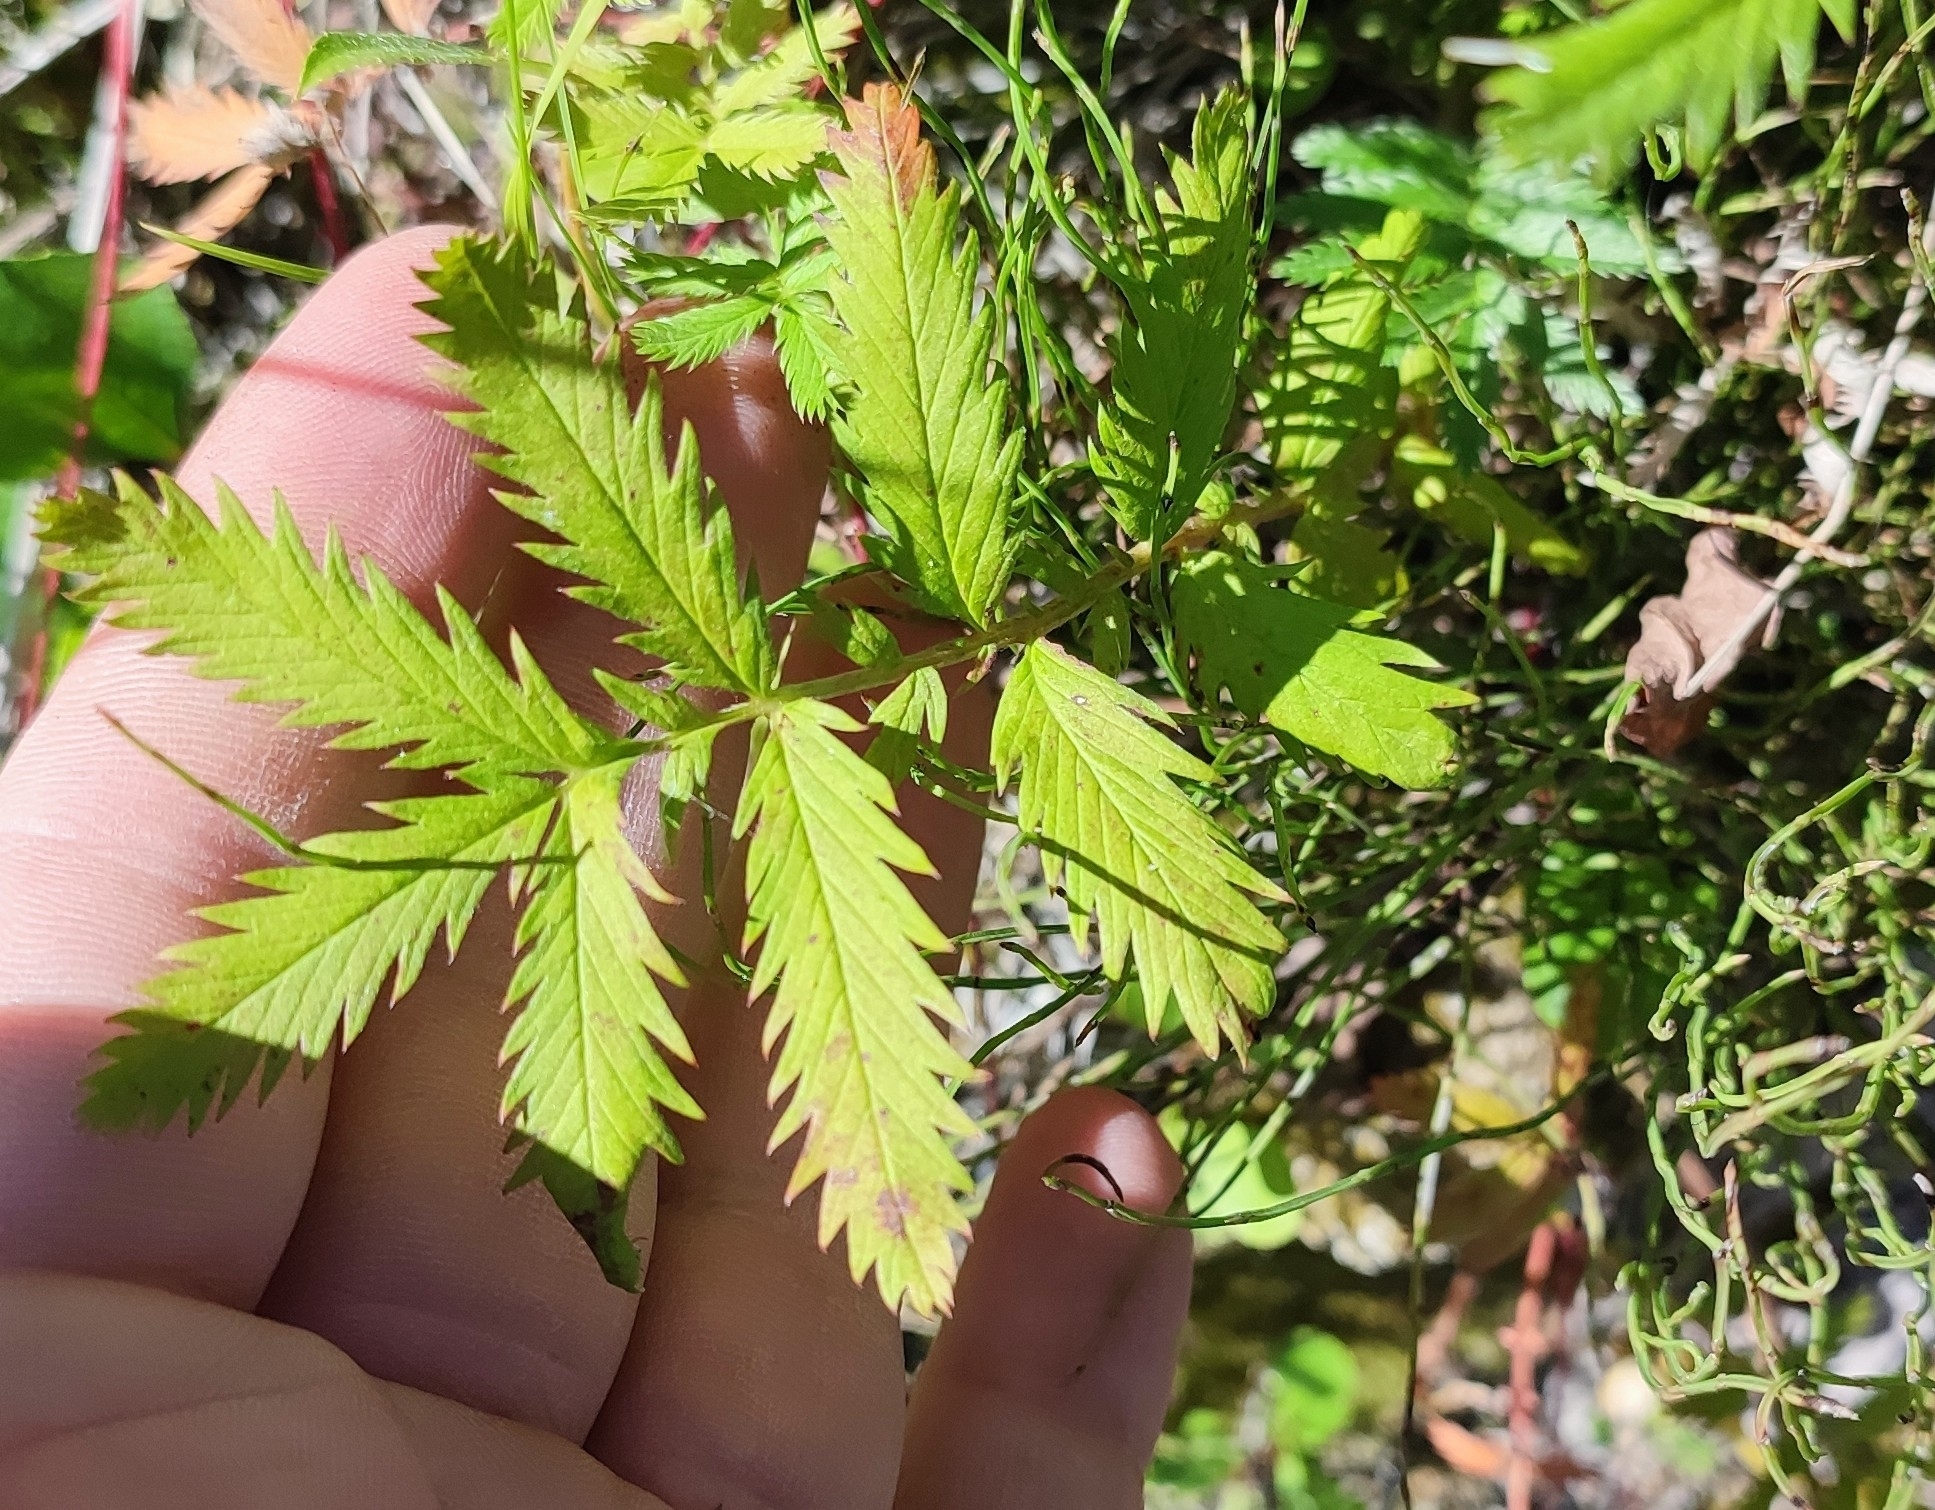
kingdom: Plantae
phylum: Tracheophyta
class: Magnoliopsida
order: Rosales
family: Rosaceae
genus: Argentina
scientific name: Argentina anserina
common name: Common silverweed
